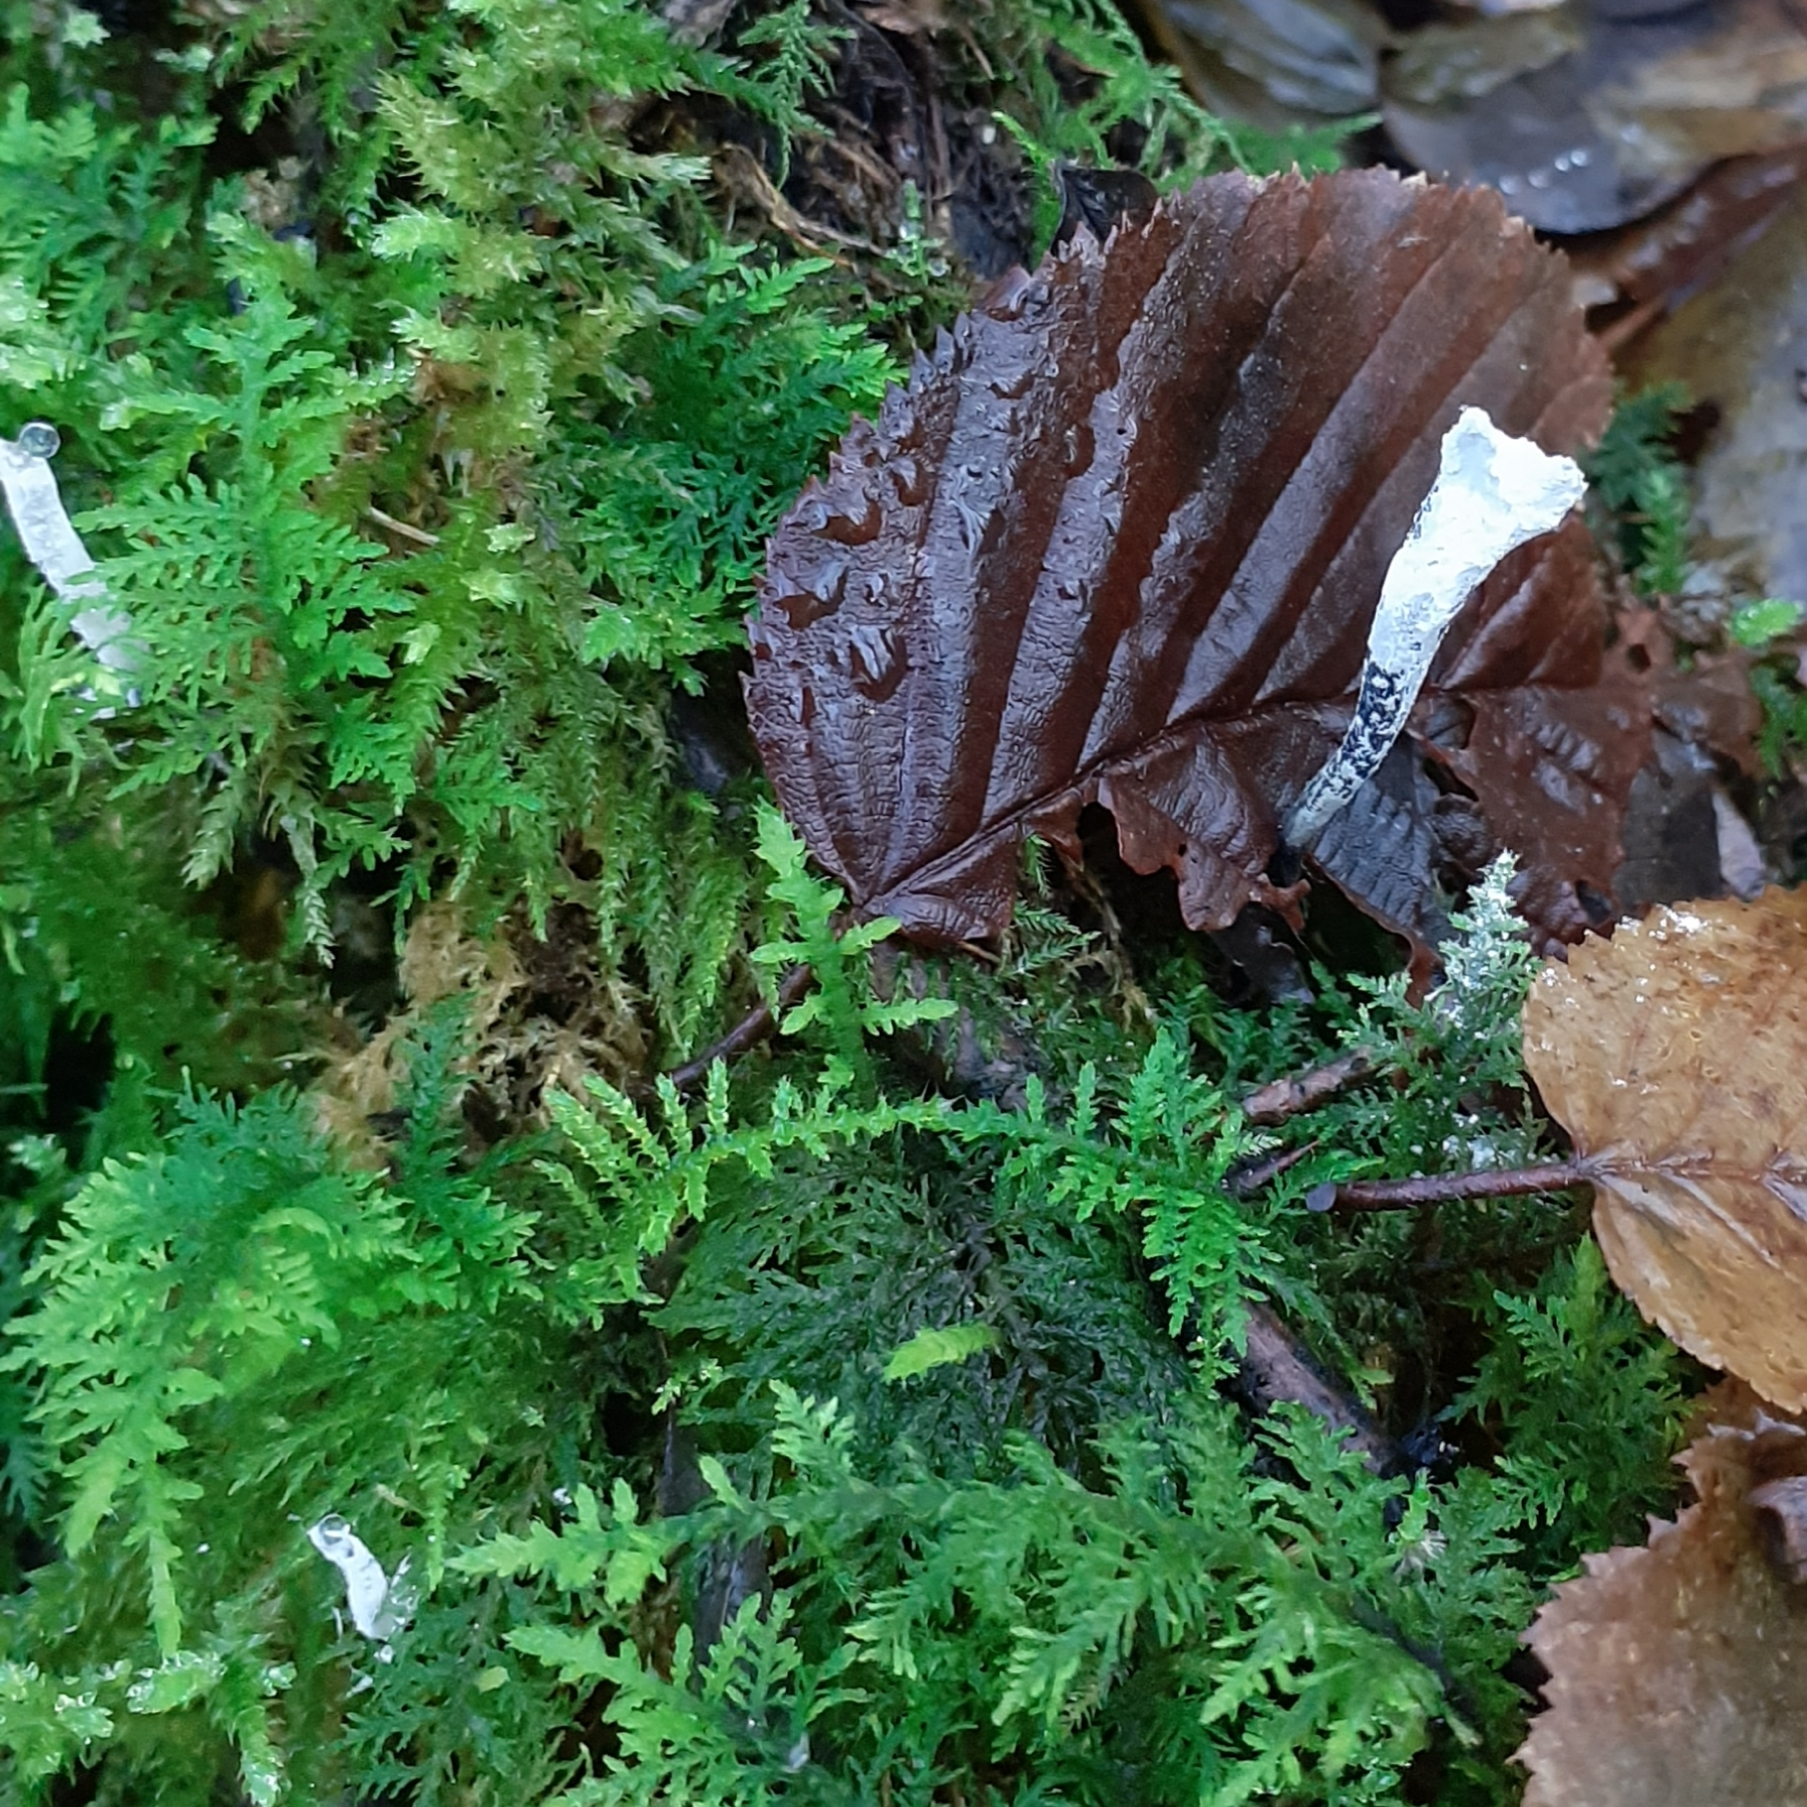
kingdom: Fungi
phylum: Ascomycota
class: Sordariomycetes
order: Xylariales
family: Xylariaceae
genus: Xylaria
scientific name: Xylaria hypoxylon
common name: Candle-snuff fungus
